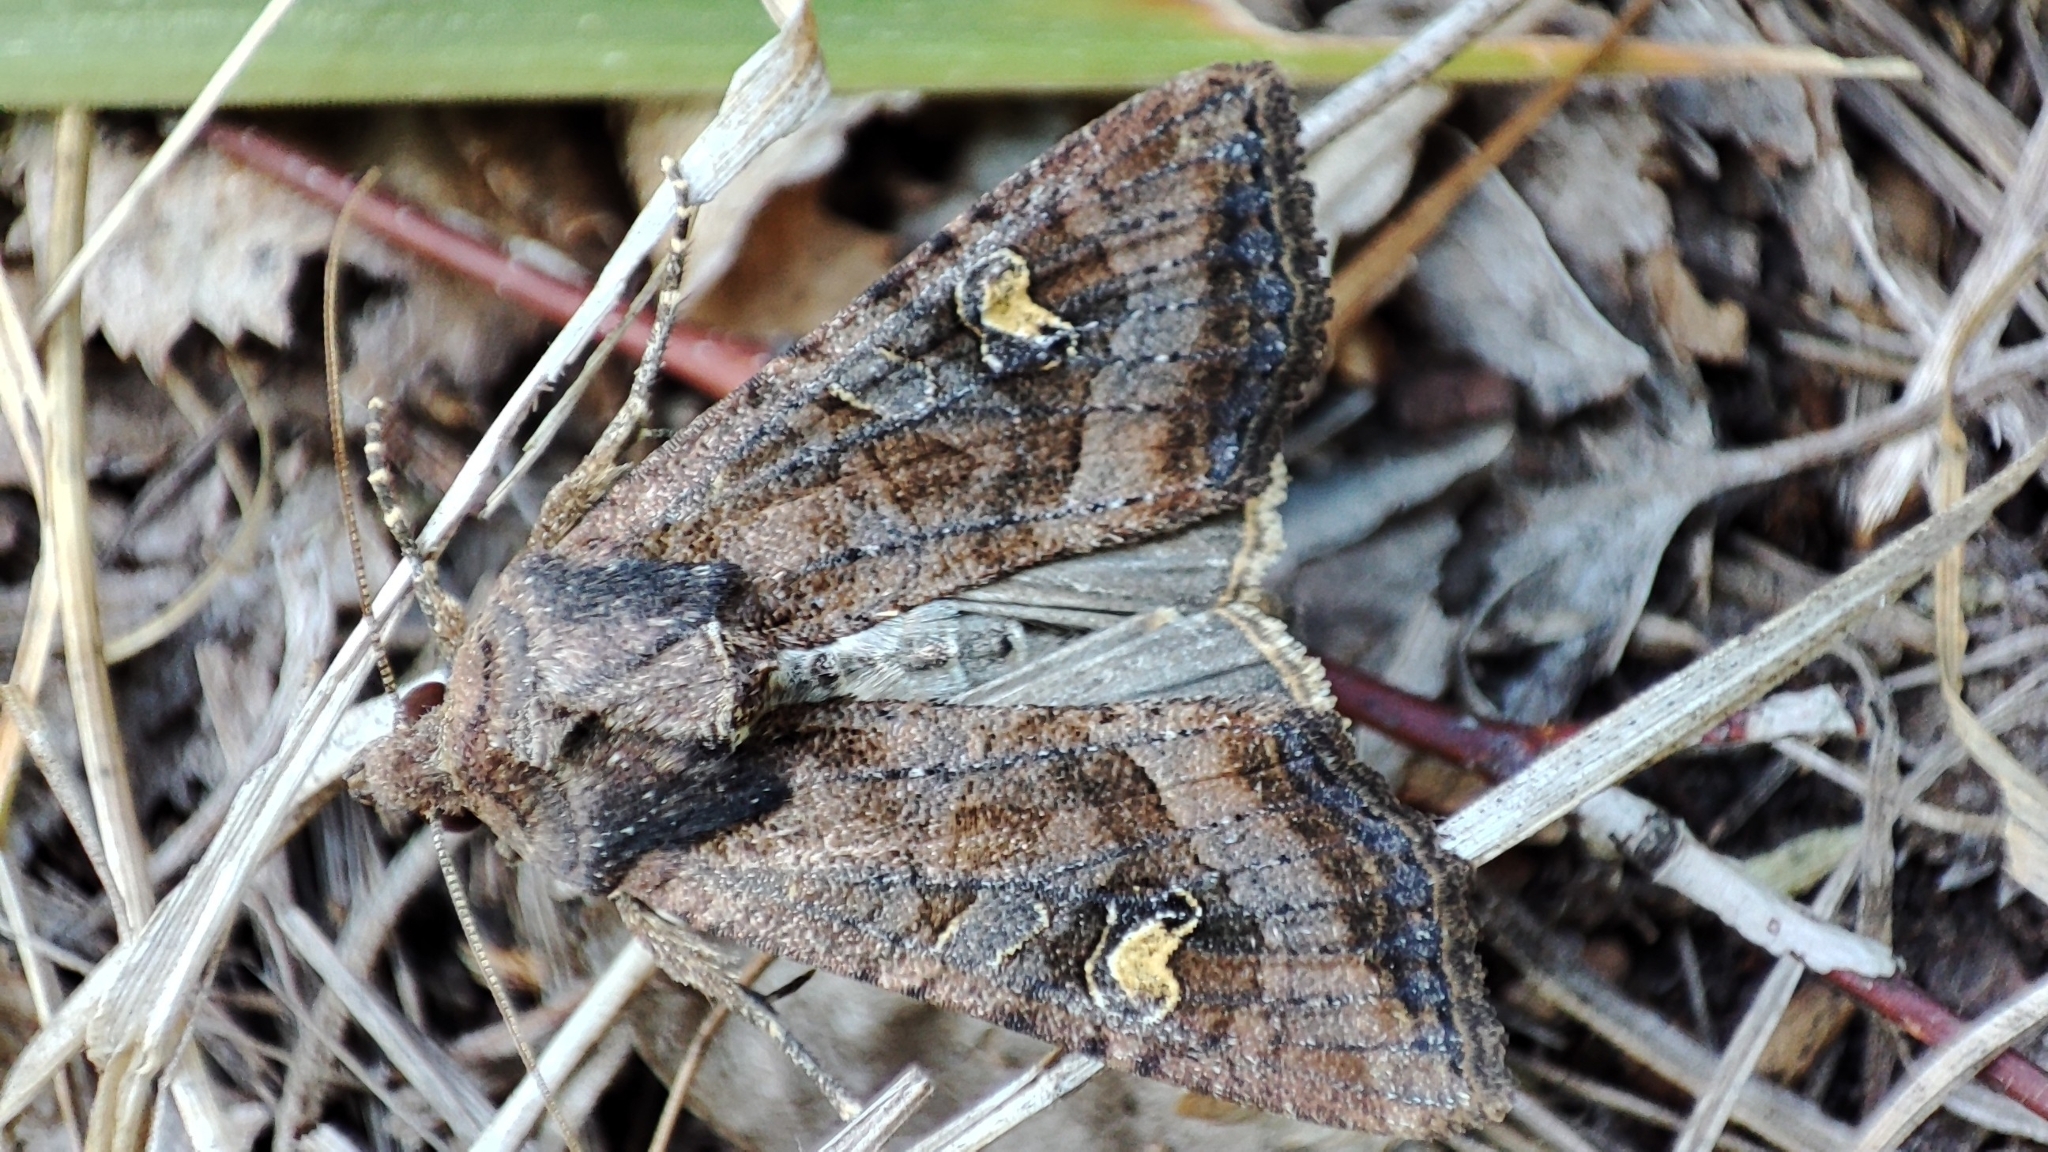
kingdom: Animalia
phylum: Arthropoda
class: Insecta
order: Lepidoptera
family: Noctuidae
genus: Helotropha
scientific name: Helotropha leucostigma
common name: The crescent
